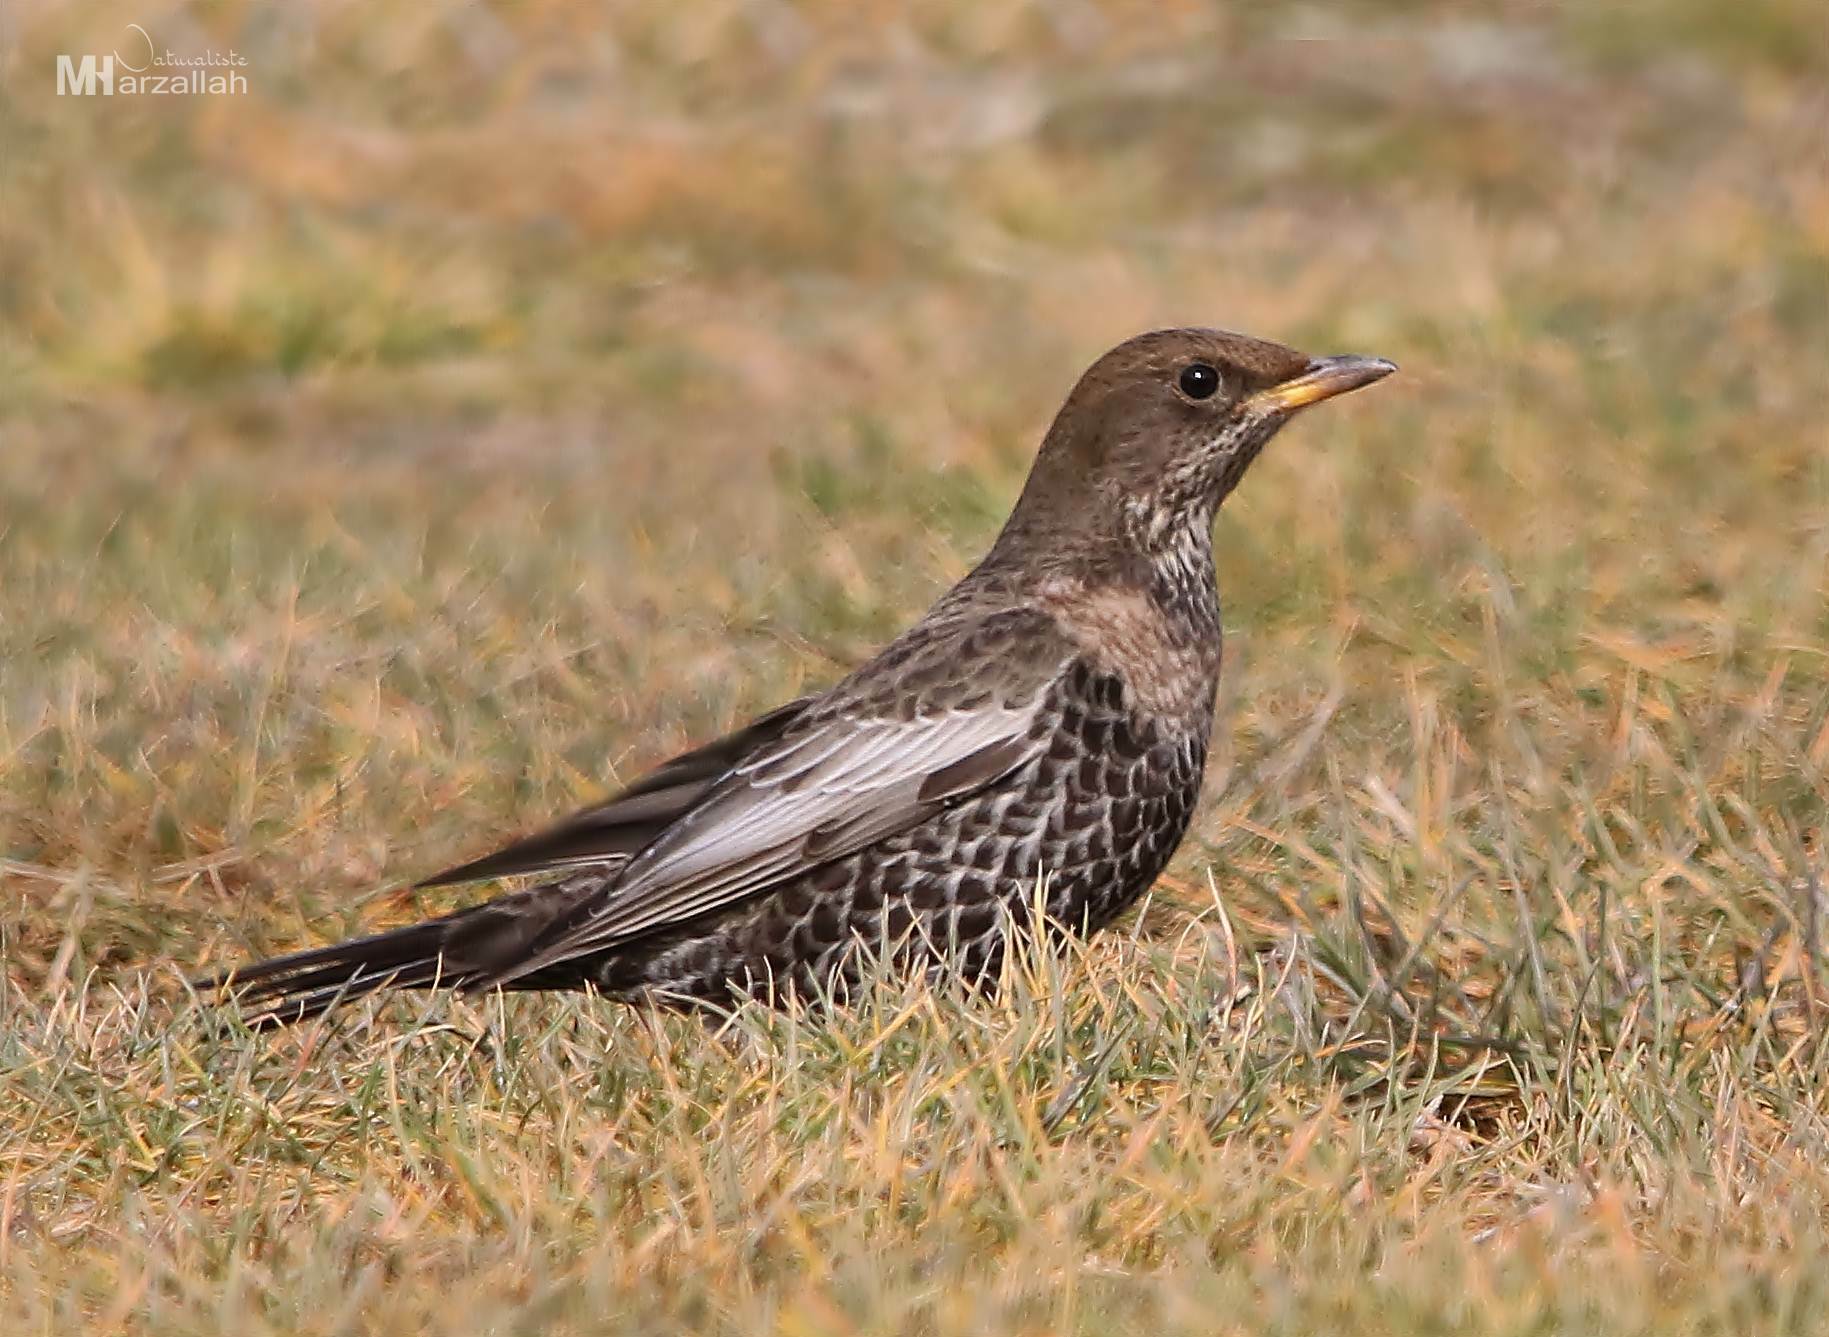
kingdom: Animalia
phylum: Chordata
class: Aves
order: Passeriformes
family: Turdidae
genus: Turdus
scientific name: Turdus torquatus
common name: Ring ouzel
